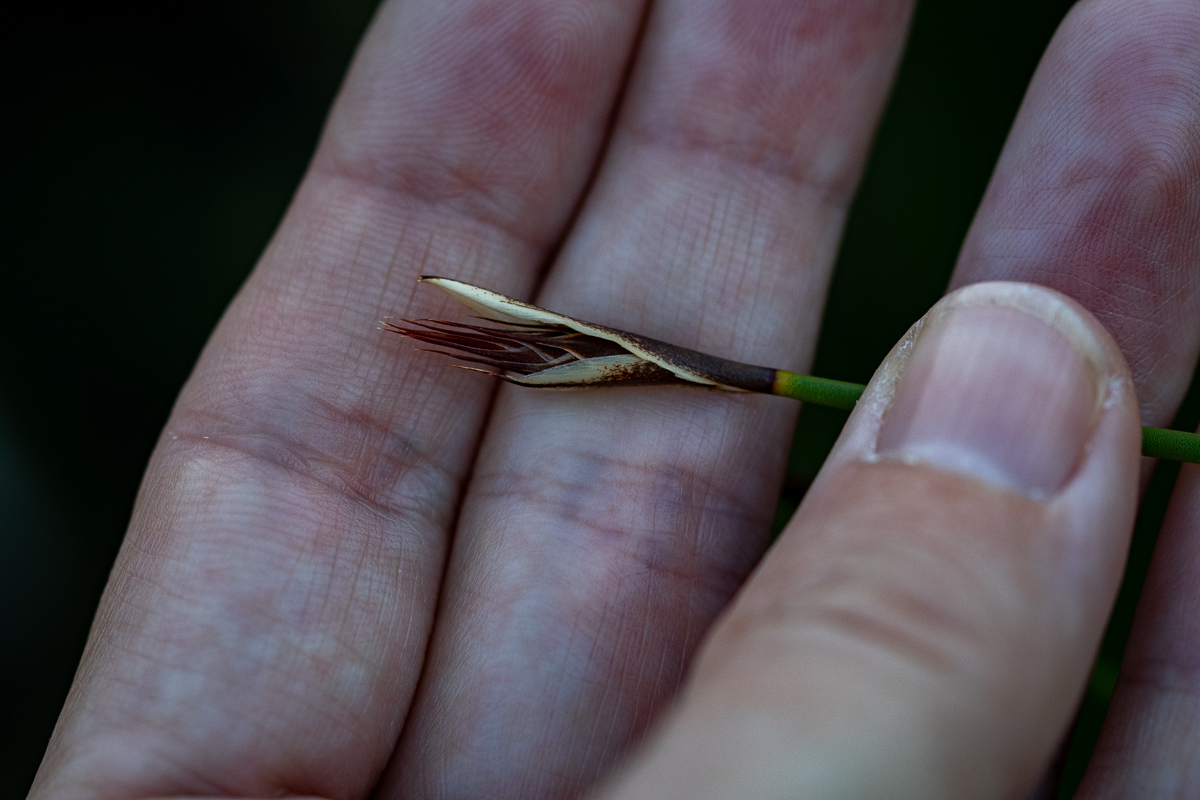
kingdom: Plantae
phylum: Tracheophyta
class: Liliopsida
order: Poales
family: Restionaceae
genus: Hypodiscus
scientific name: Hypodiscus alboaristatus
